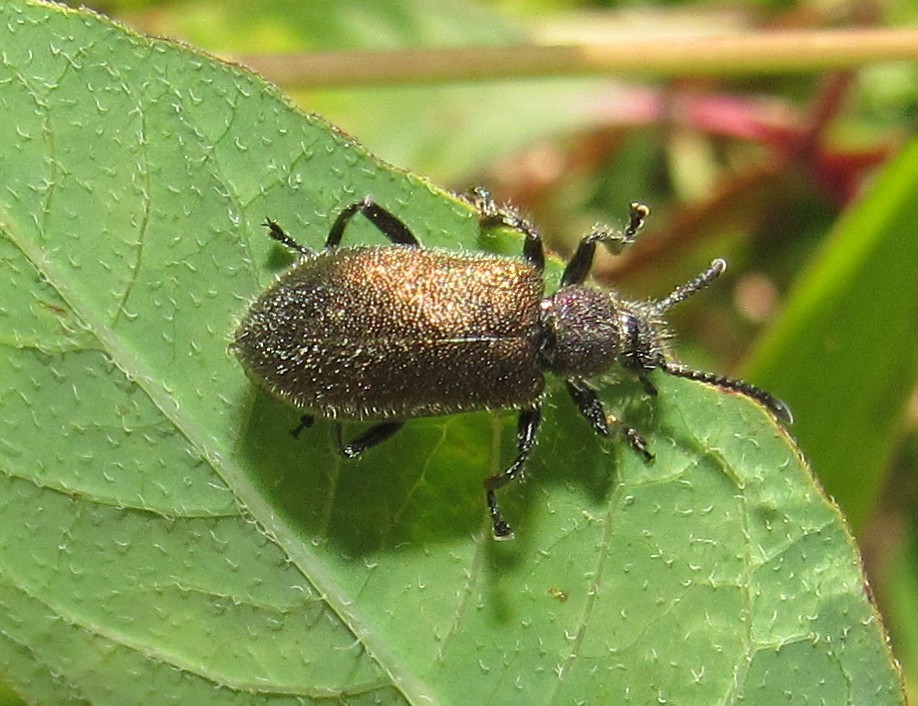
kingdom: Animalia
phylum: Arthropoda
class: Insecta
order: Coleoptera
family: Tenebrionidae
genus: Lagria
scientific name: Lagria villosa
